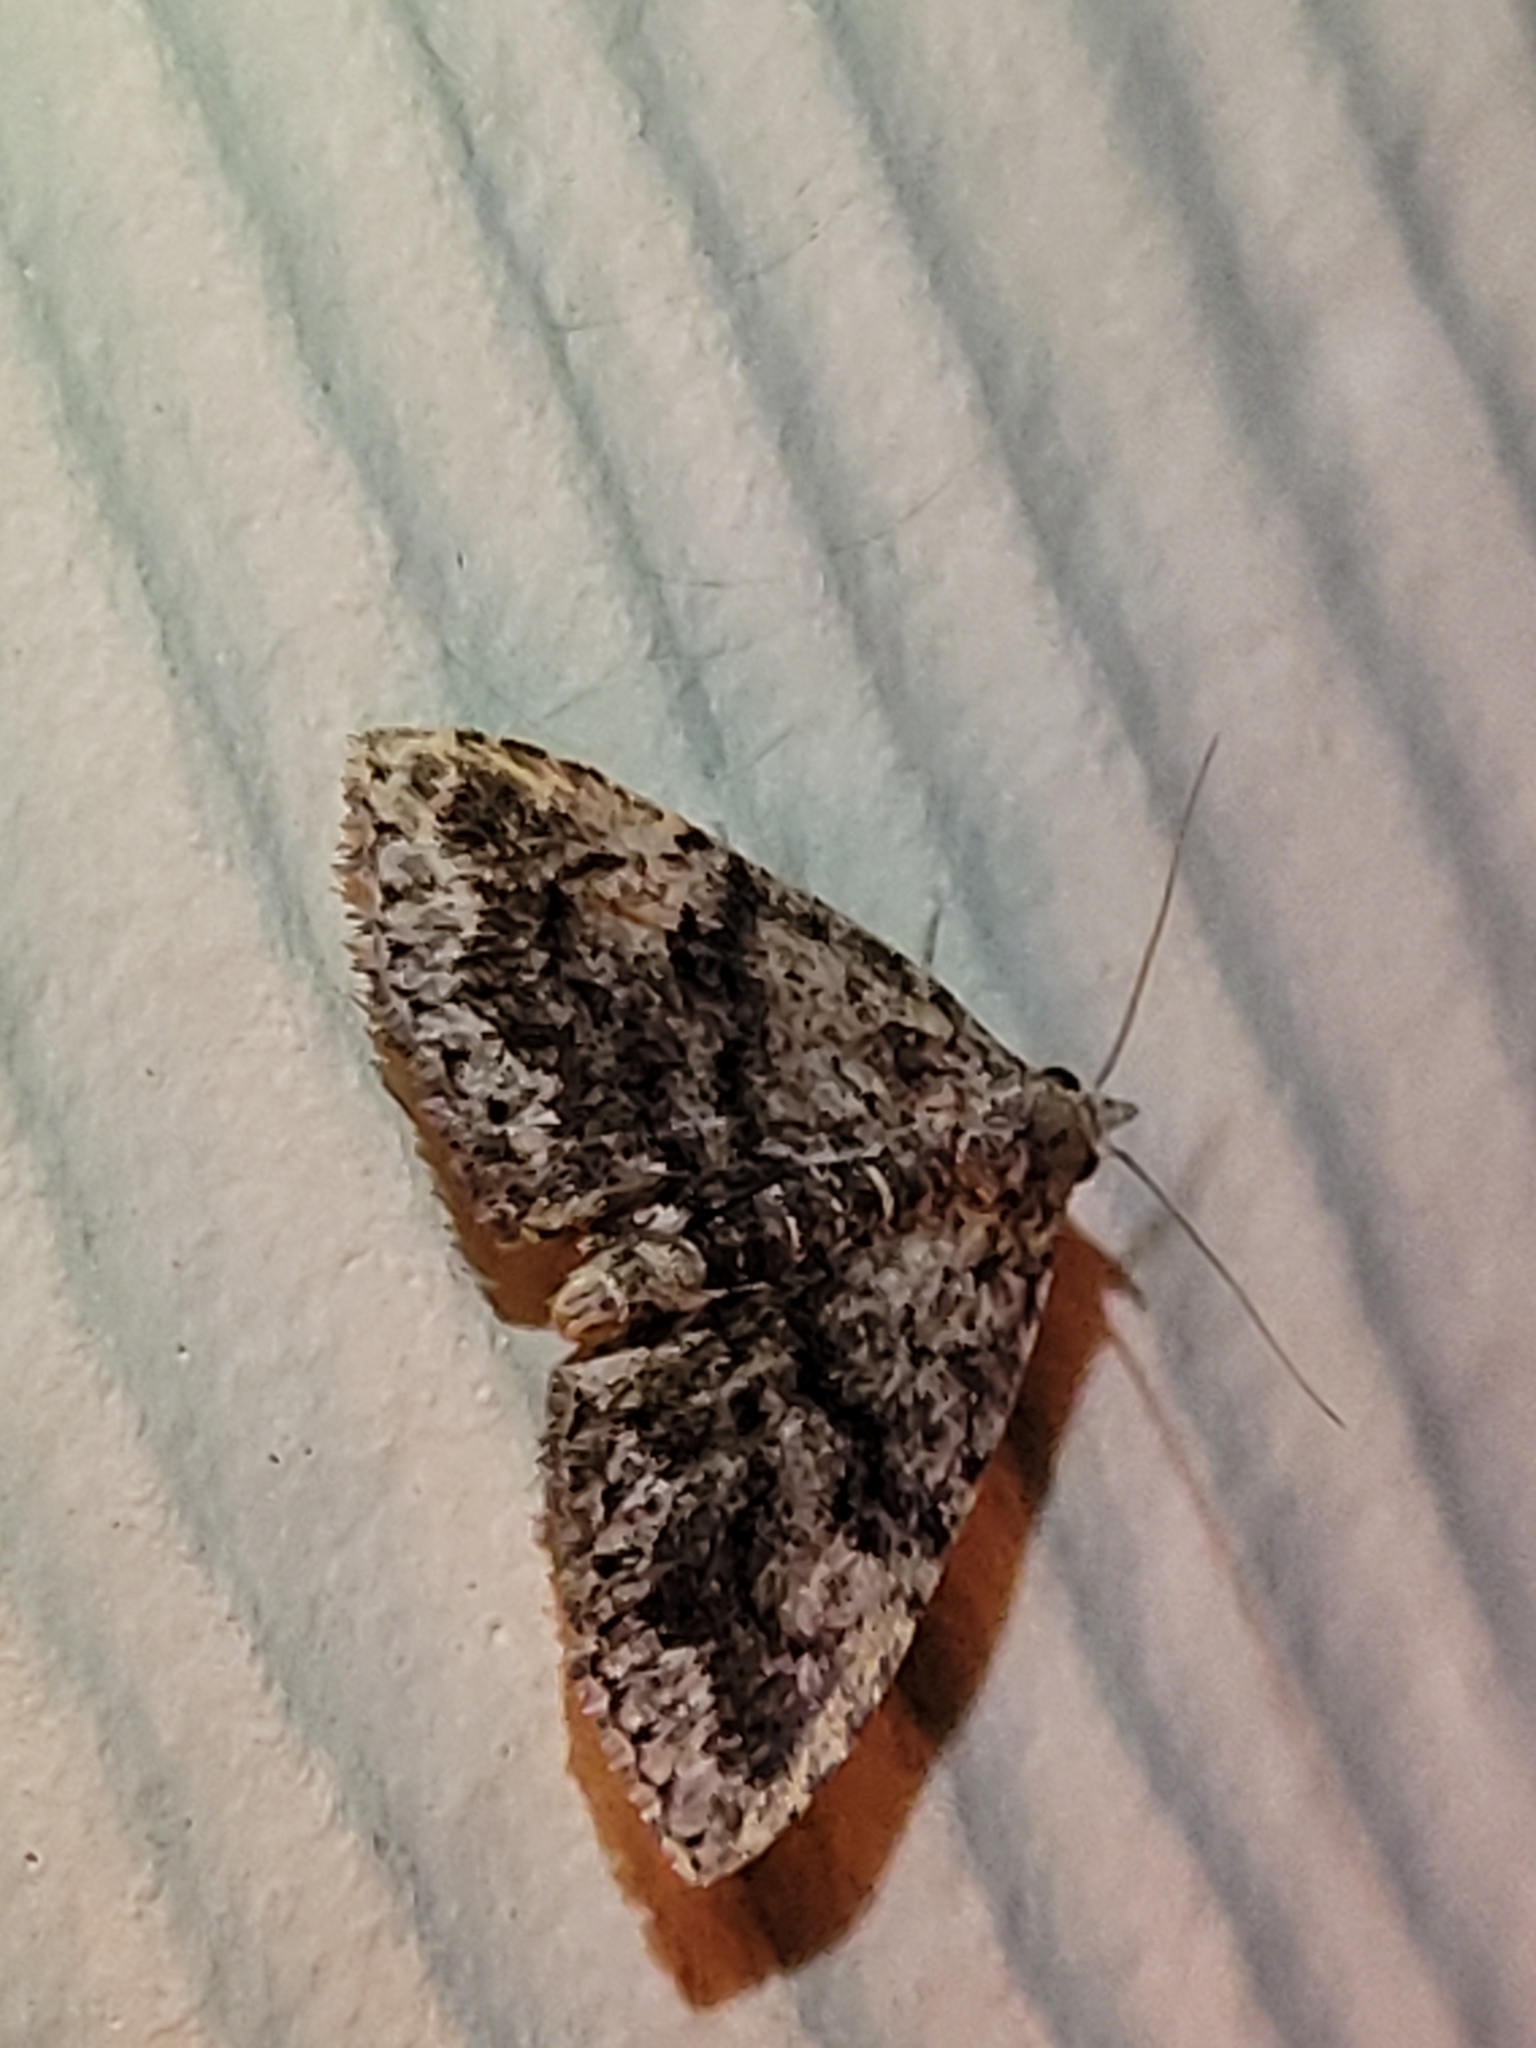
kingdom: Animalia
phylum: Arthropoda
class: Insecta
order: Lepidoptera
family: Erebidae
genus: Metalectra
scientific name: Metalectra richardsi
